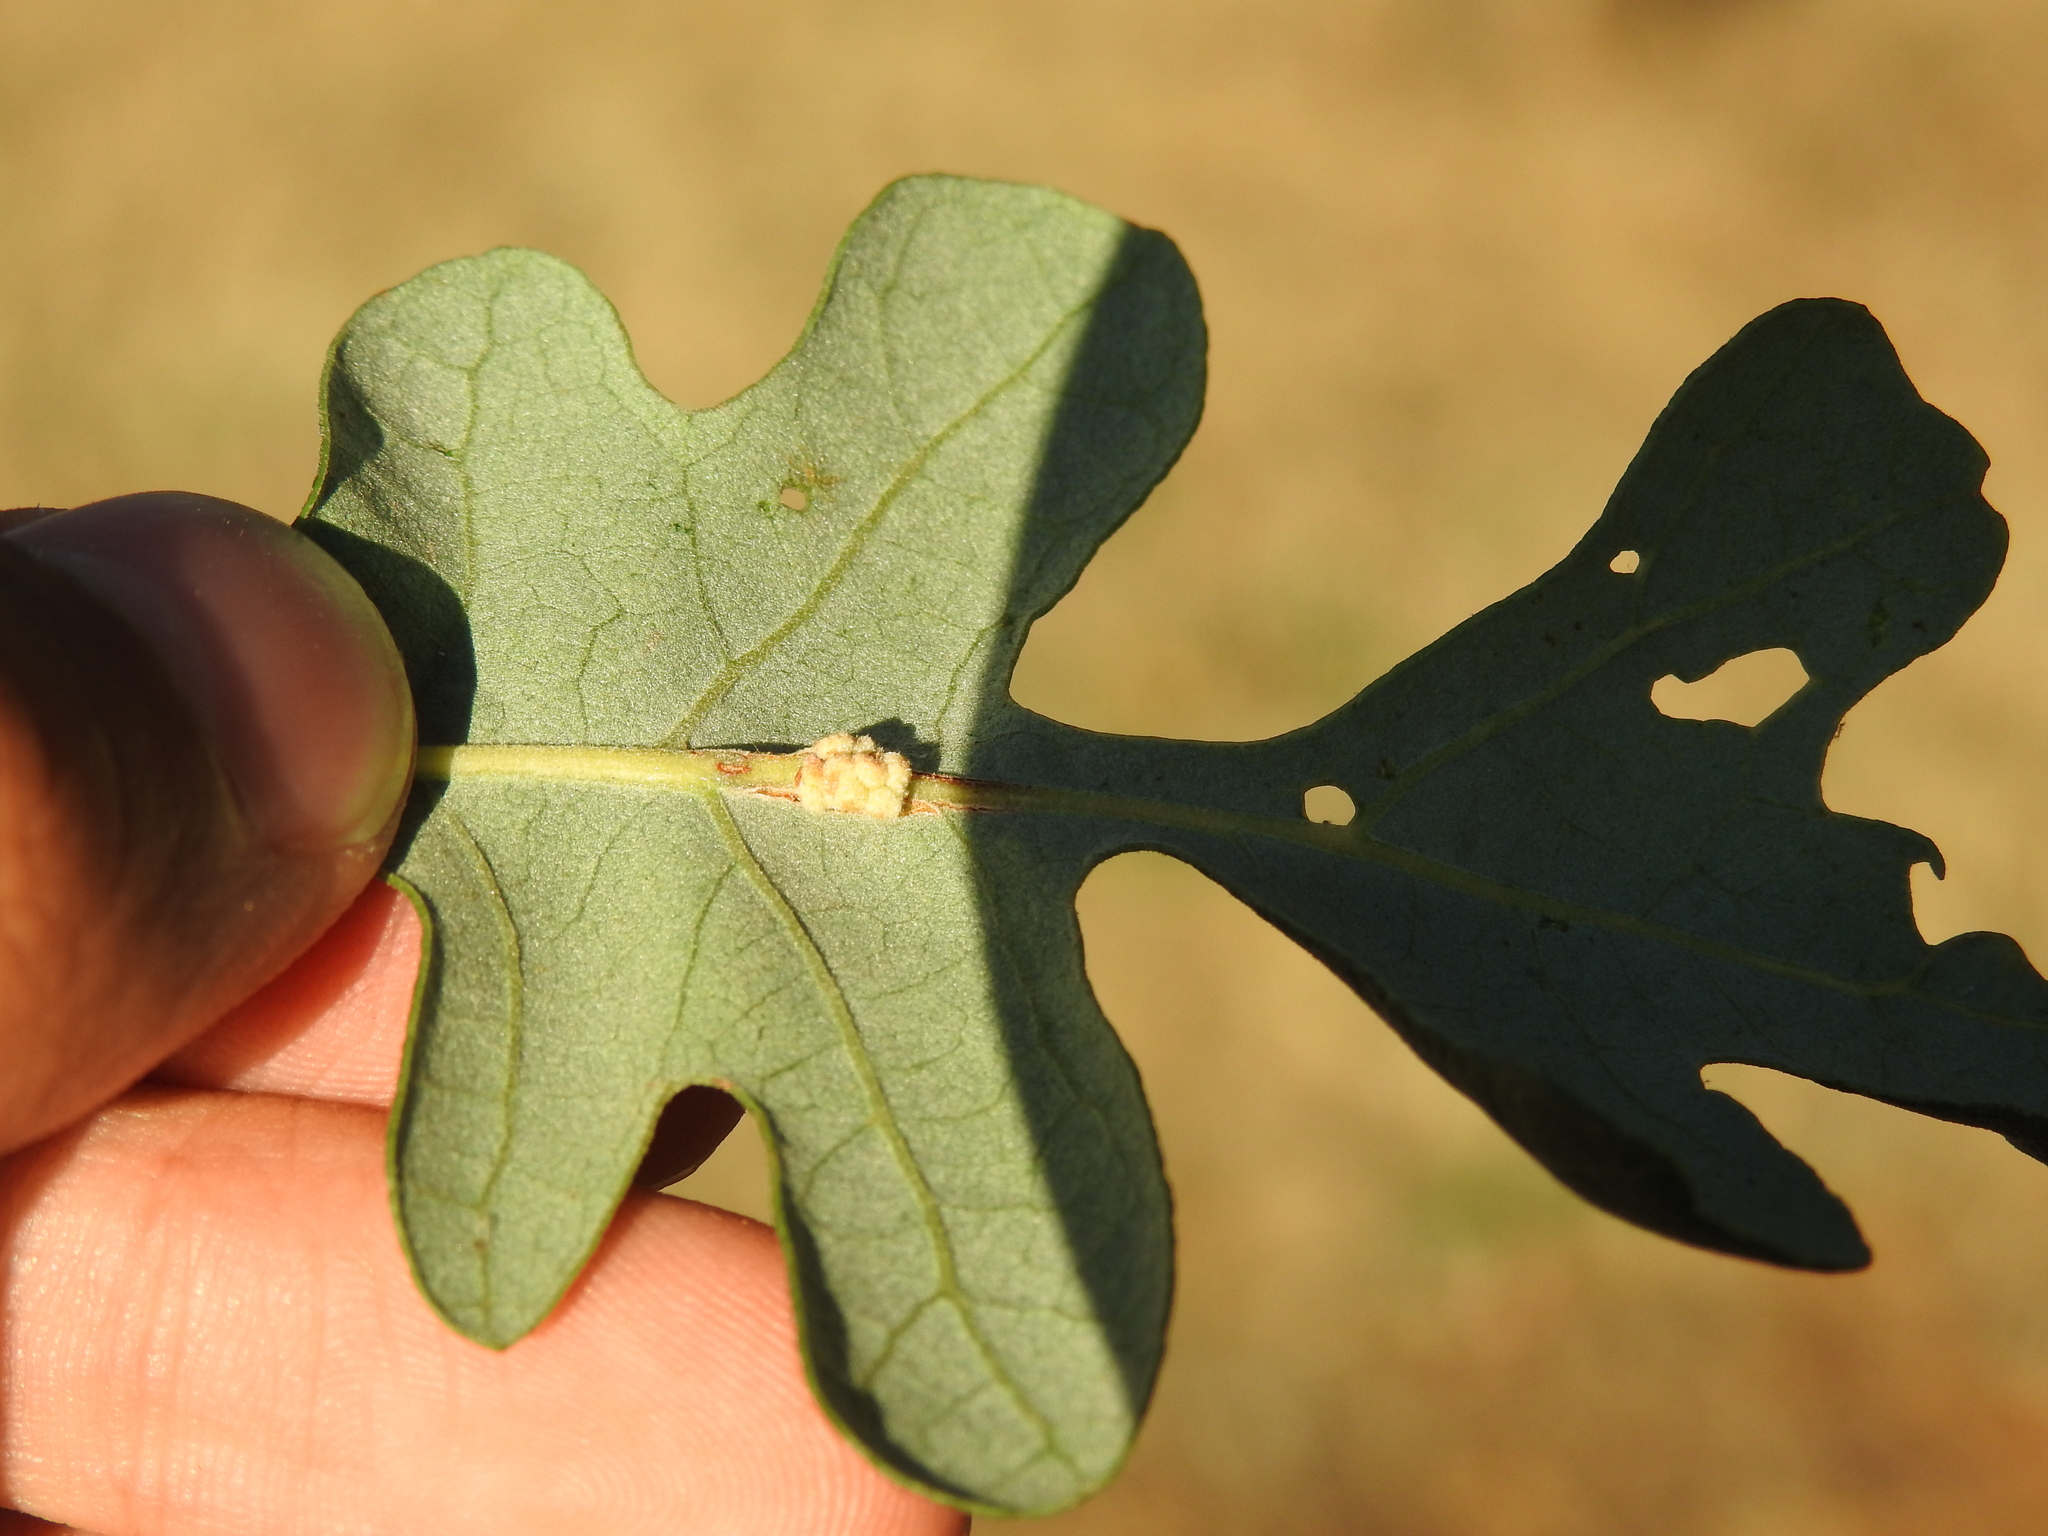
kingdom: Animalia
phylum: Arthropoda
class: Insecta
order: Hymenoptera
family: Cynipidae
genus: Andricus
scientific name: Andricus
